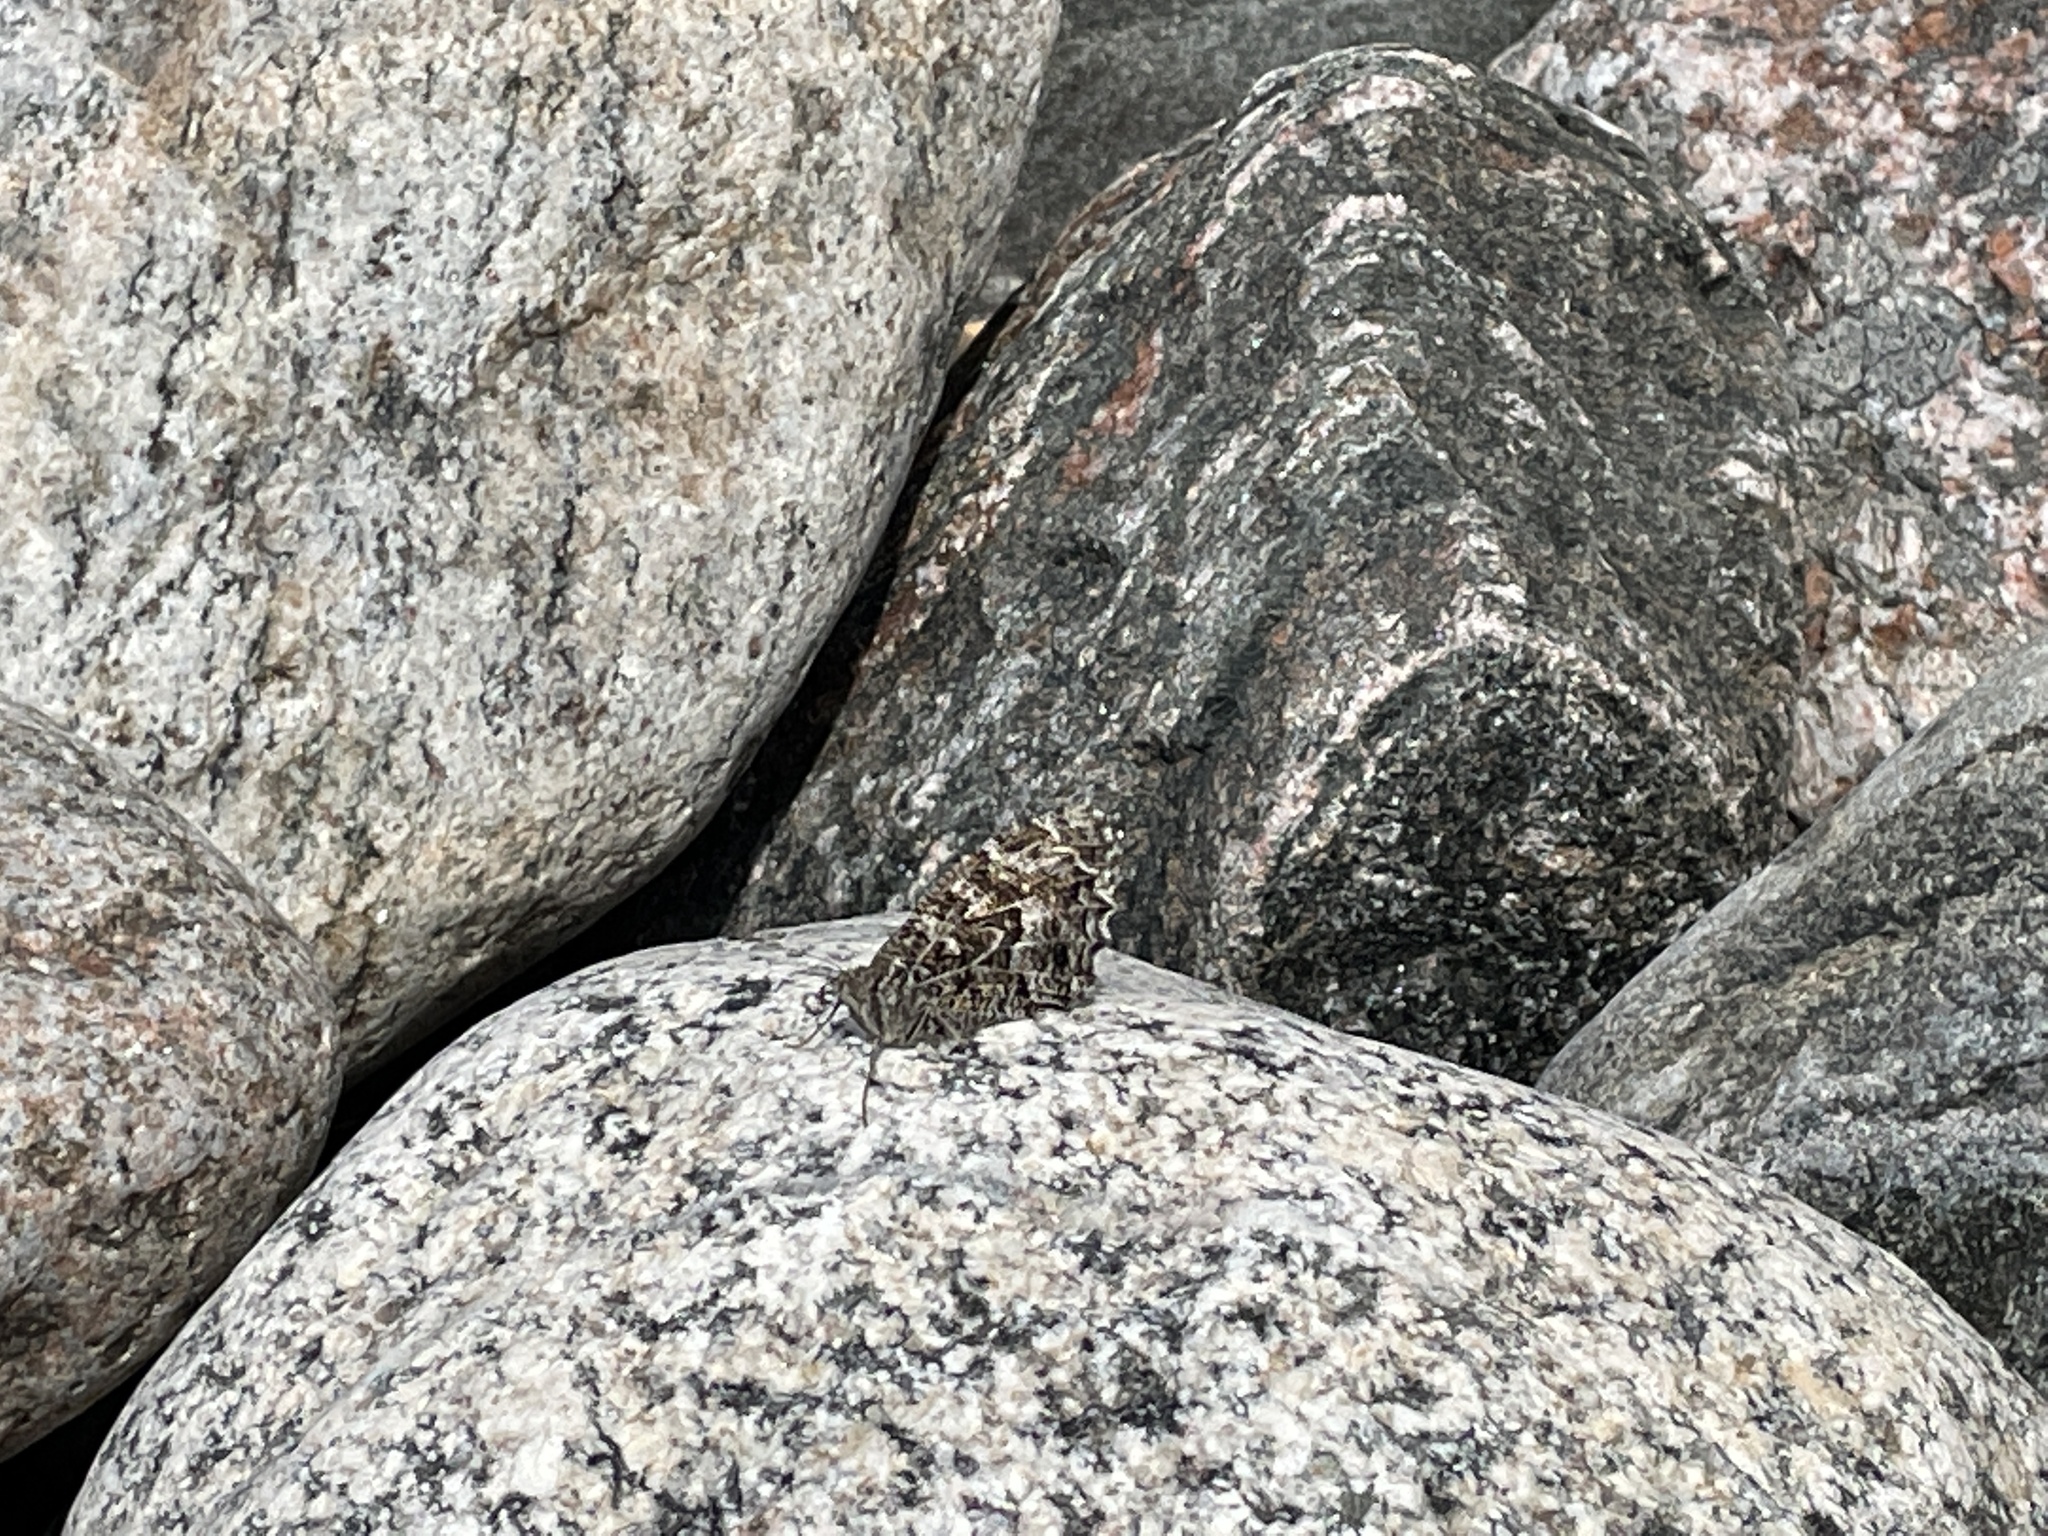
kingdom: Animalia
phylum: Arthropoda
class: Insecta
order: Lepidoptera
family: Nymphalidae
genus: Hipparchia
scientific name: Hipparchia semele
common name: Grayling
